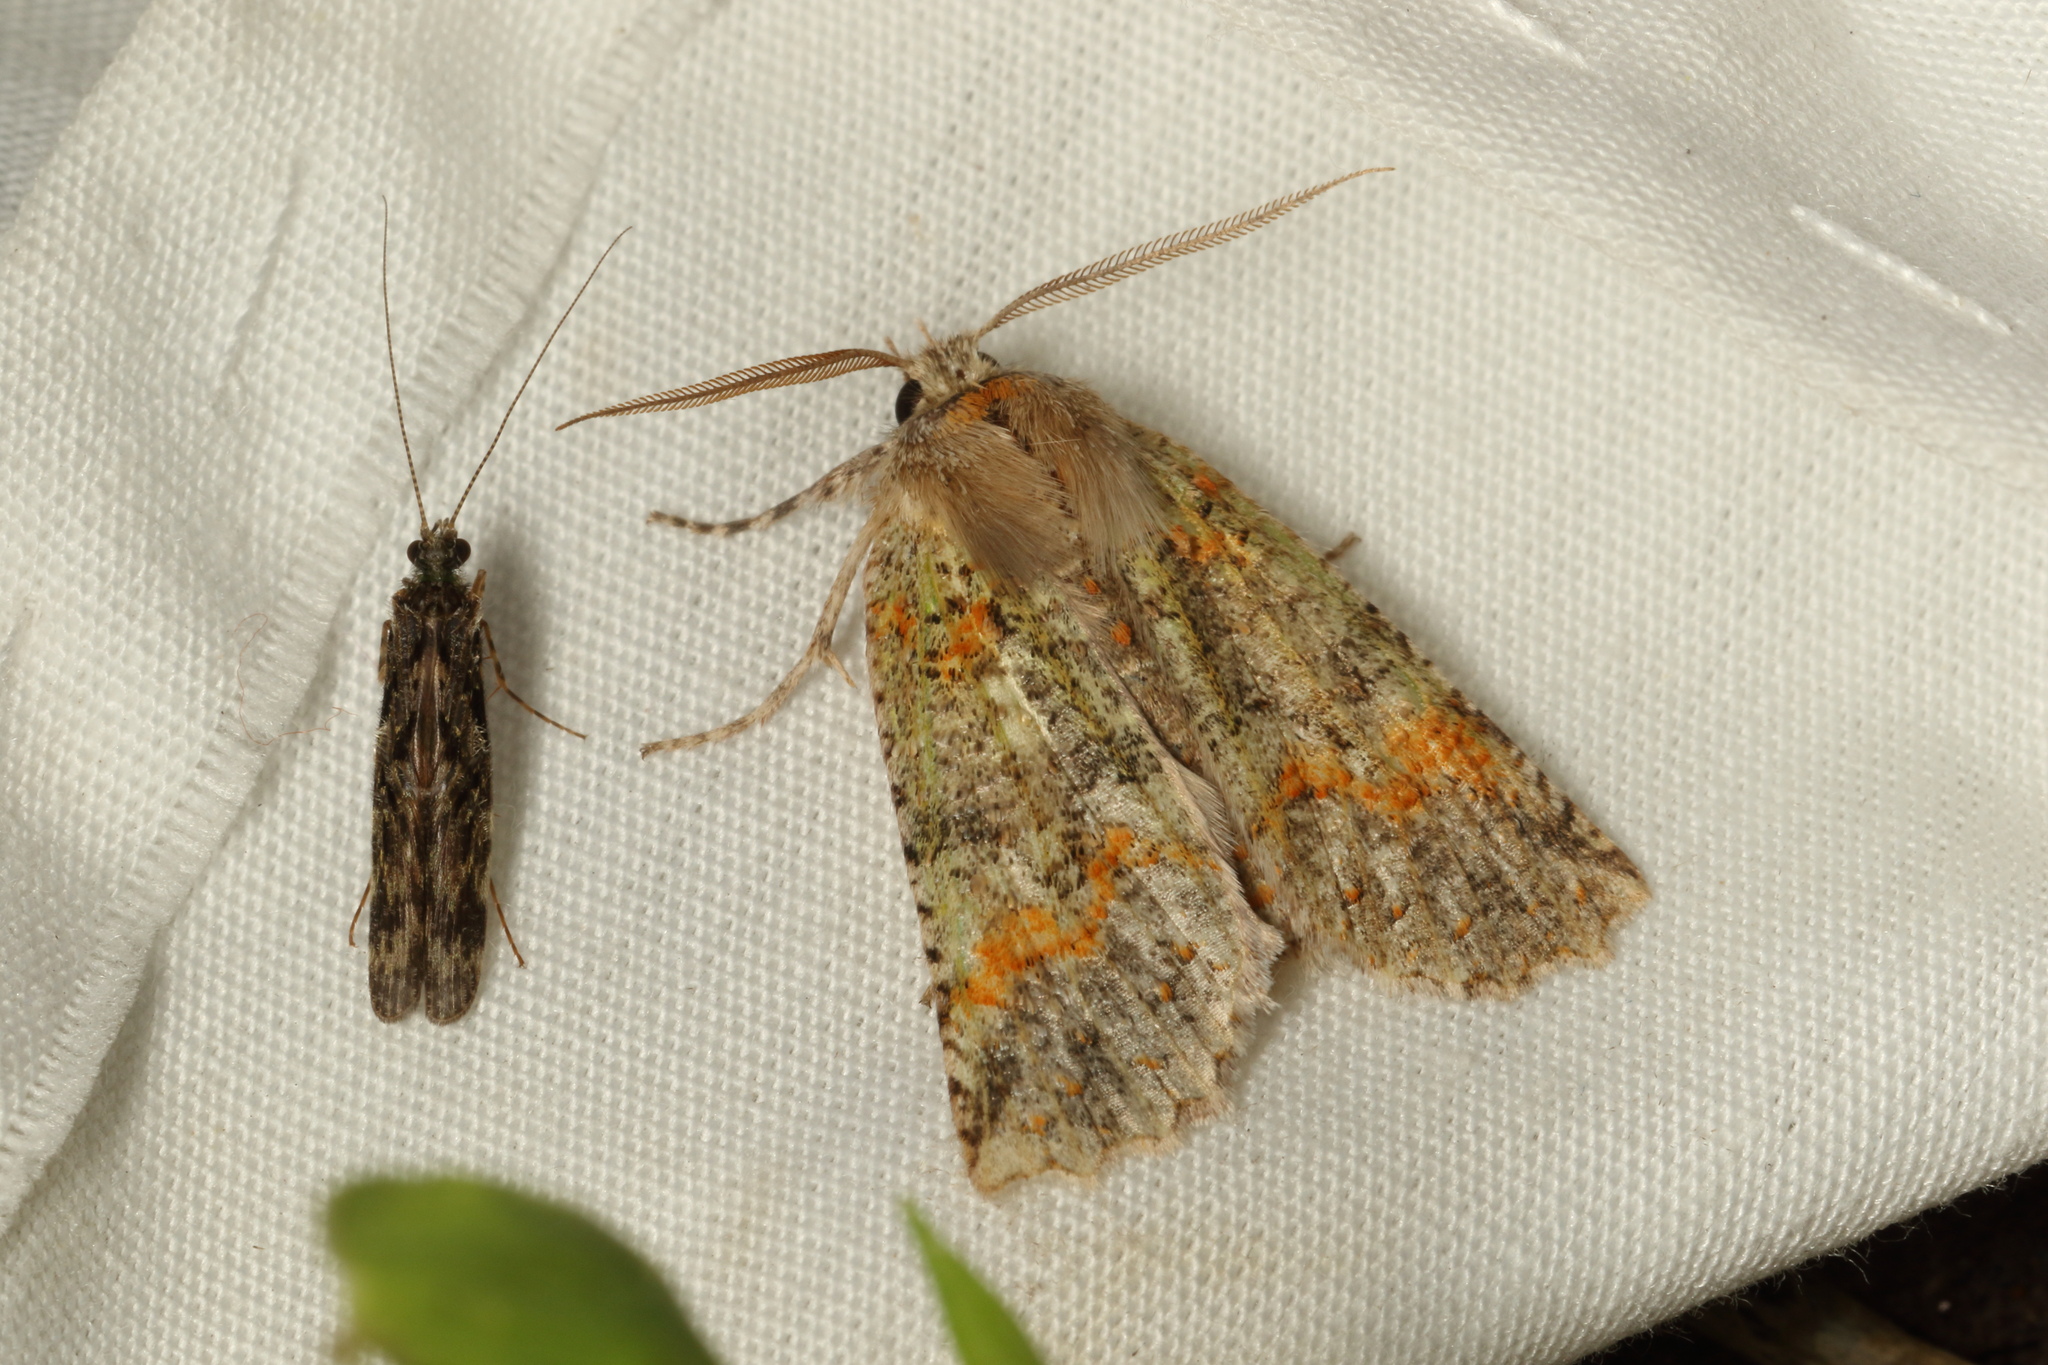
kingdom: Animalia
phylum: Arthropoda
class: Insecta
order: Lepidoptera
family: Geometridae
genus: Declana
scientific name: Declana floccosa
